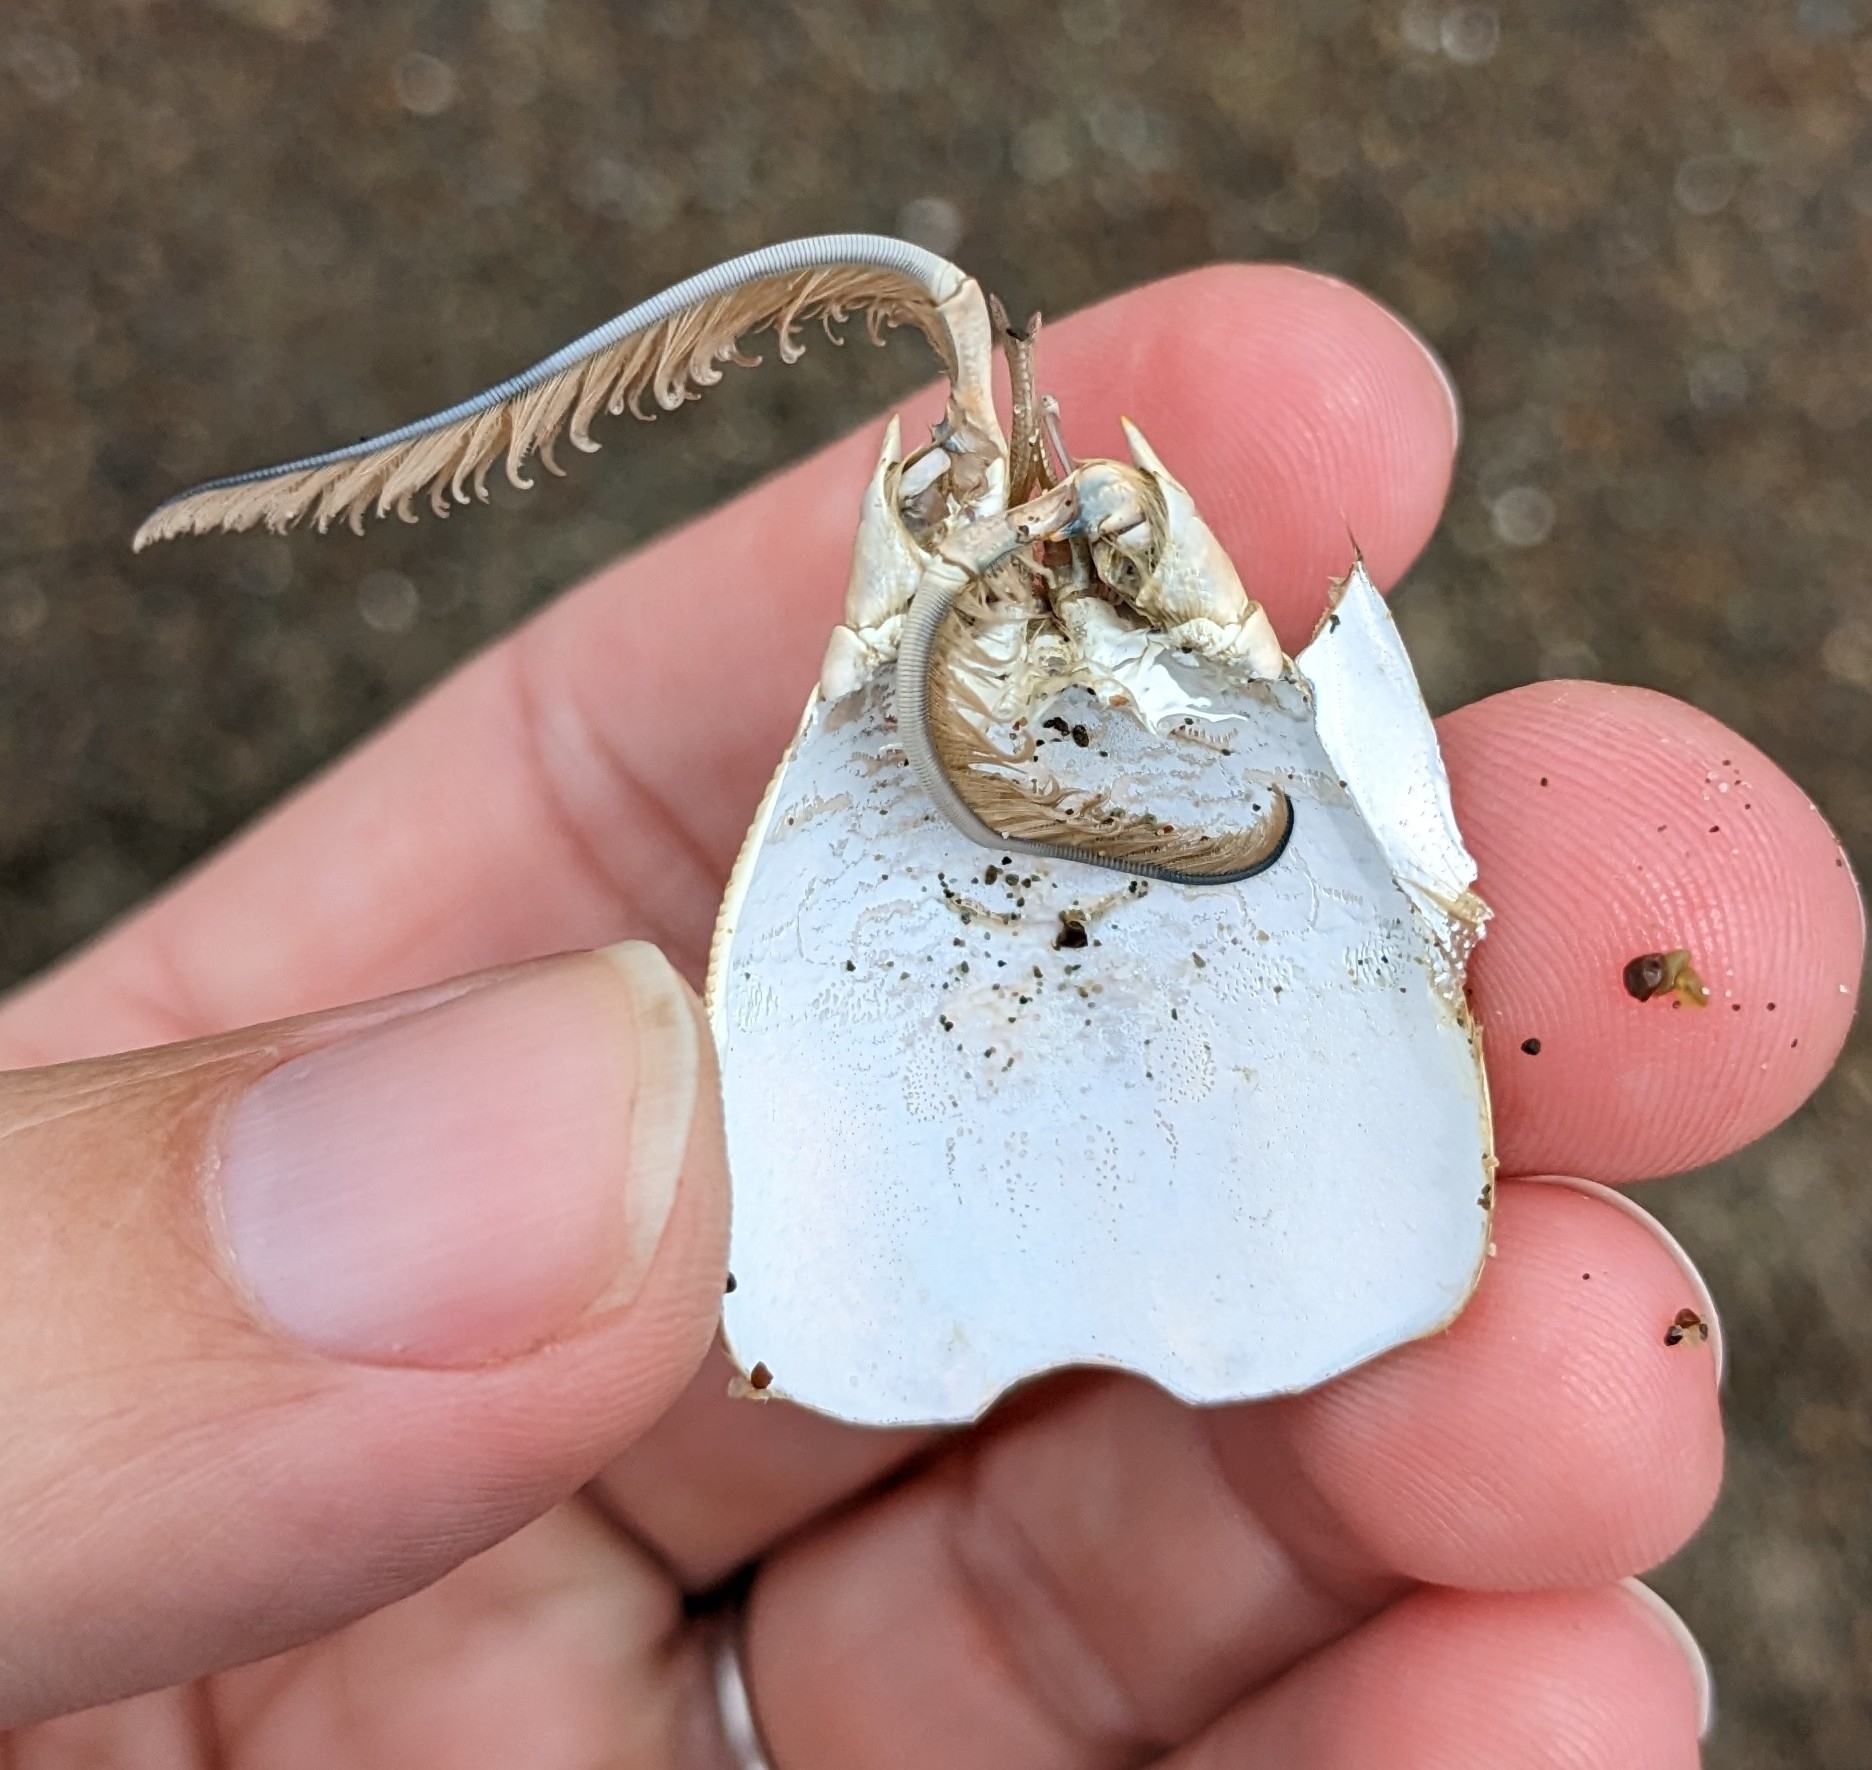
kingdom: Animalia
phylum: Arthropoda
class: Malacostraca
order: Decapoda
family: Hippidae
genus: Emerita
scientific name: Emerita analoga
